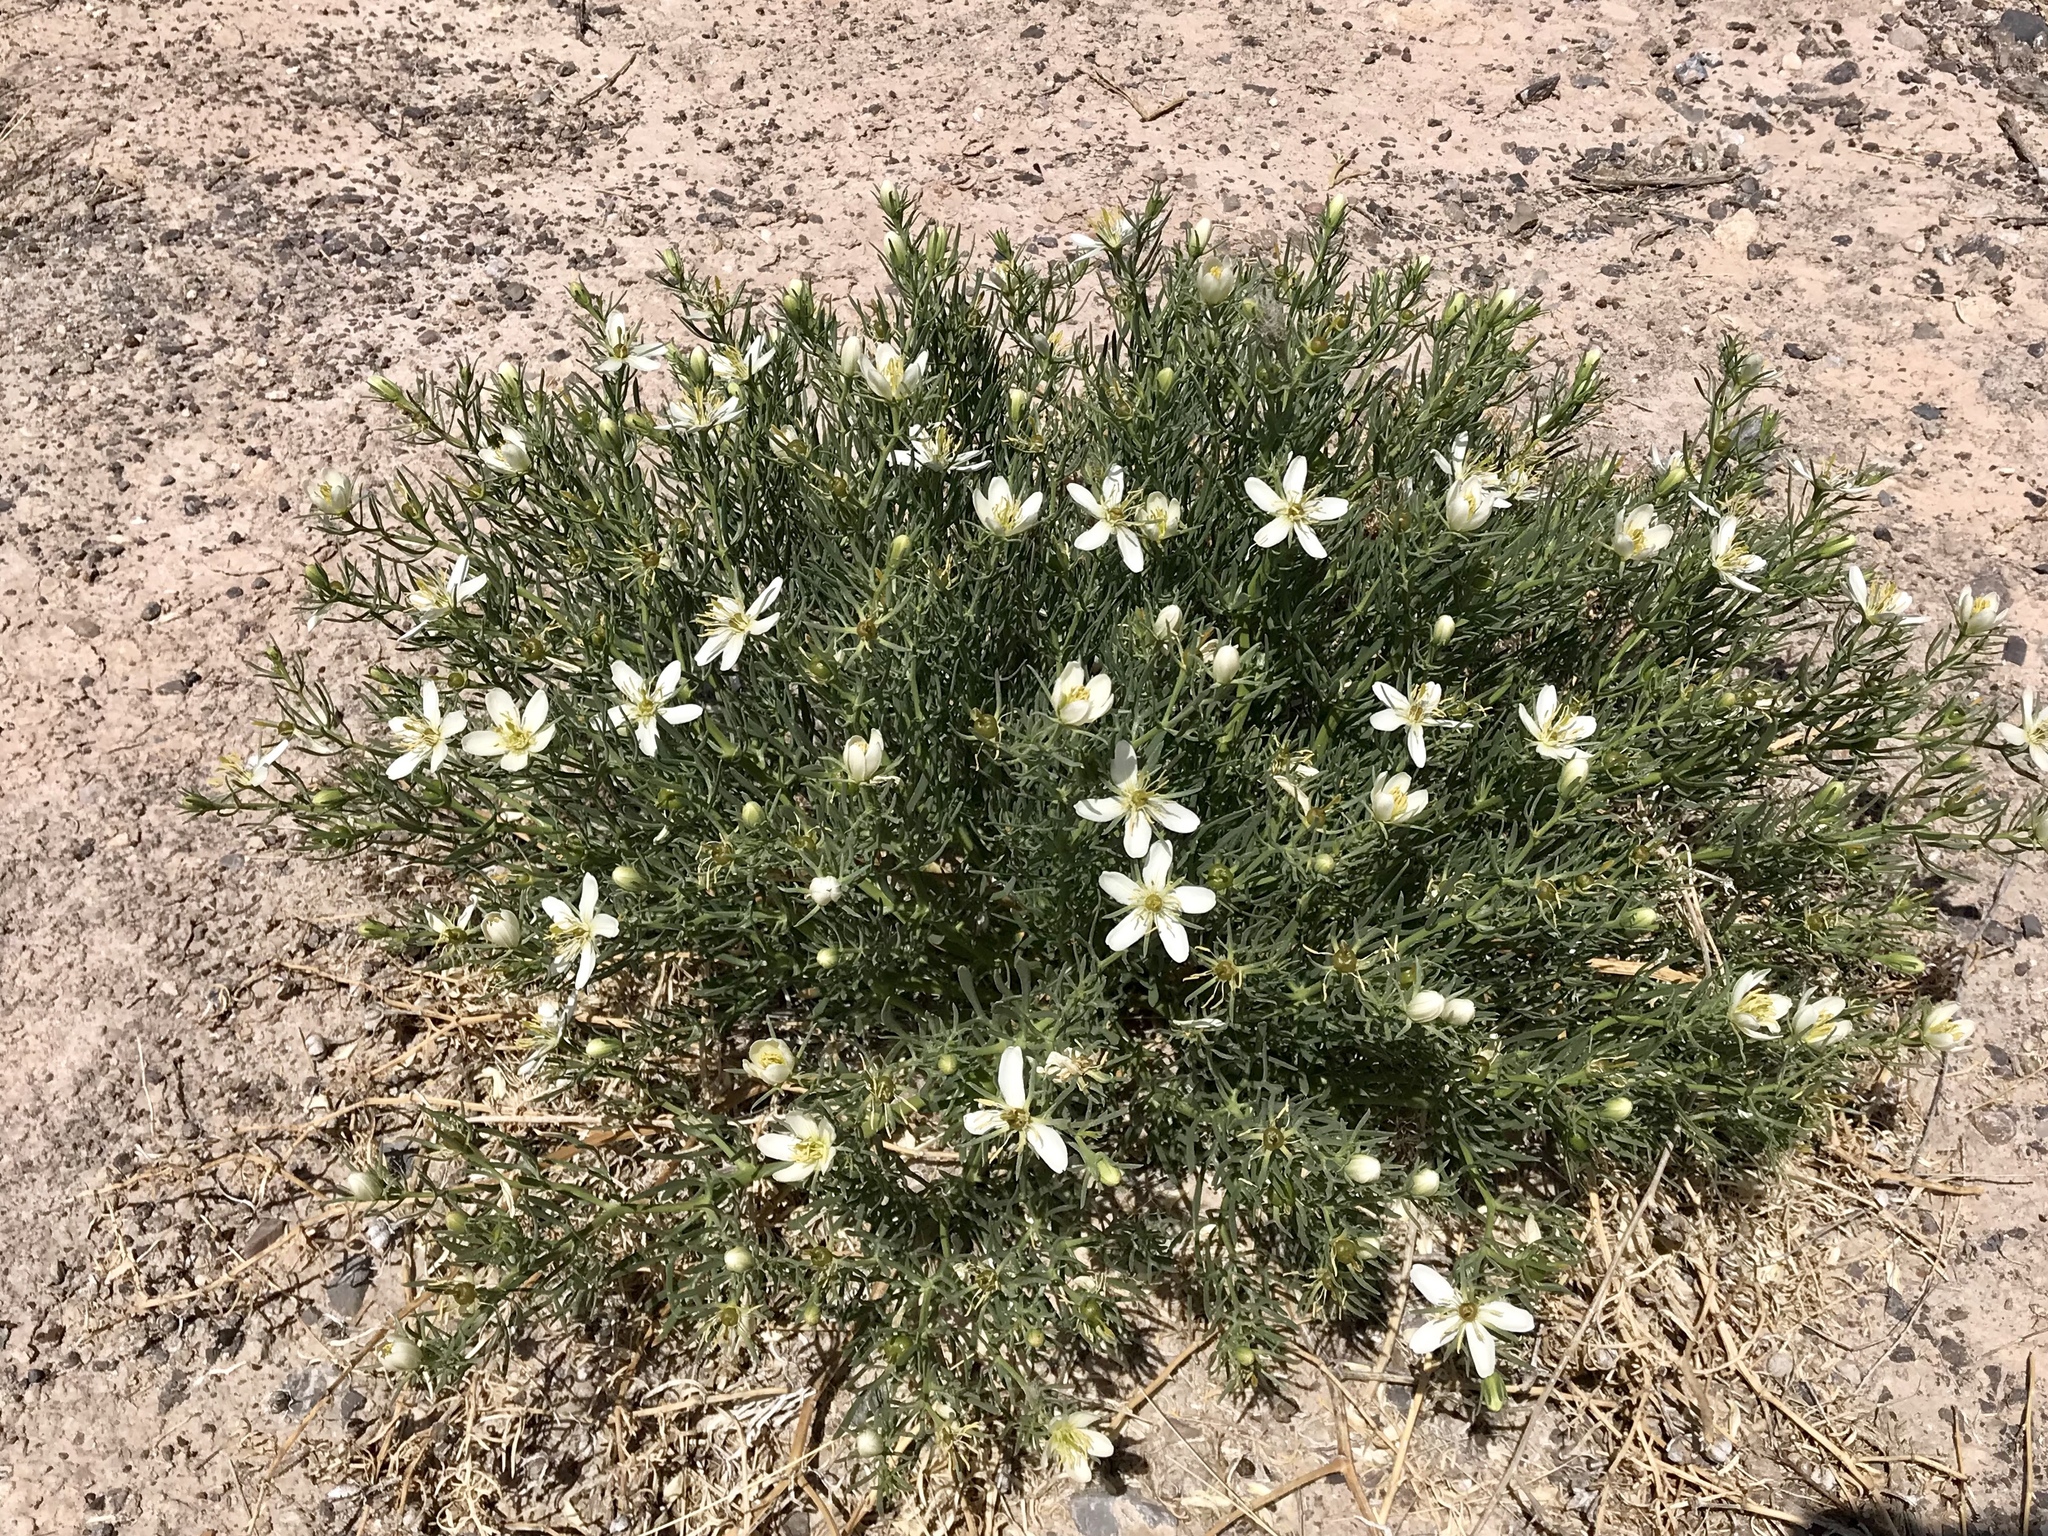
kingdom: Plantae
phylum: Tracheophyta
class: Magnoliopsida
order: Sapindales
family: Tetradiclidaceae
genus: Peganum
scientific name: Peganum harmala
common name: Harmal peganum
